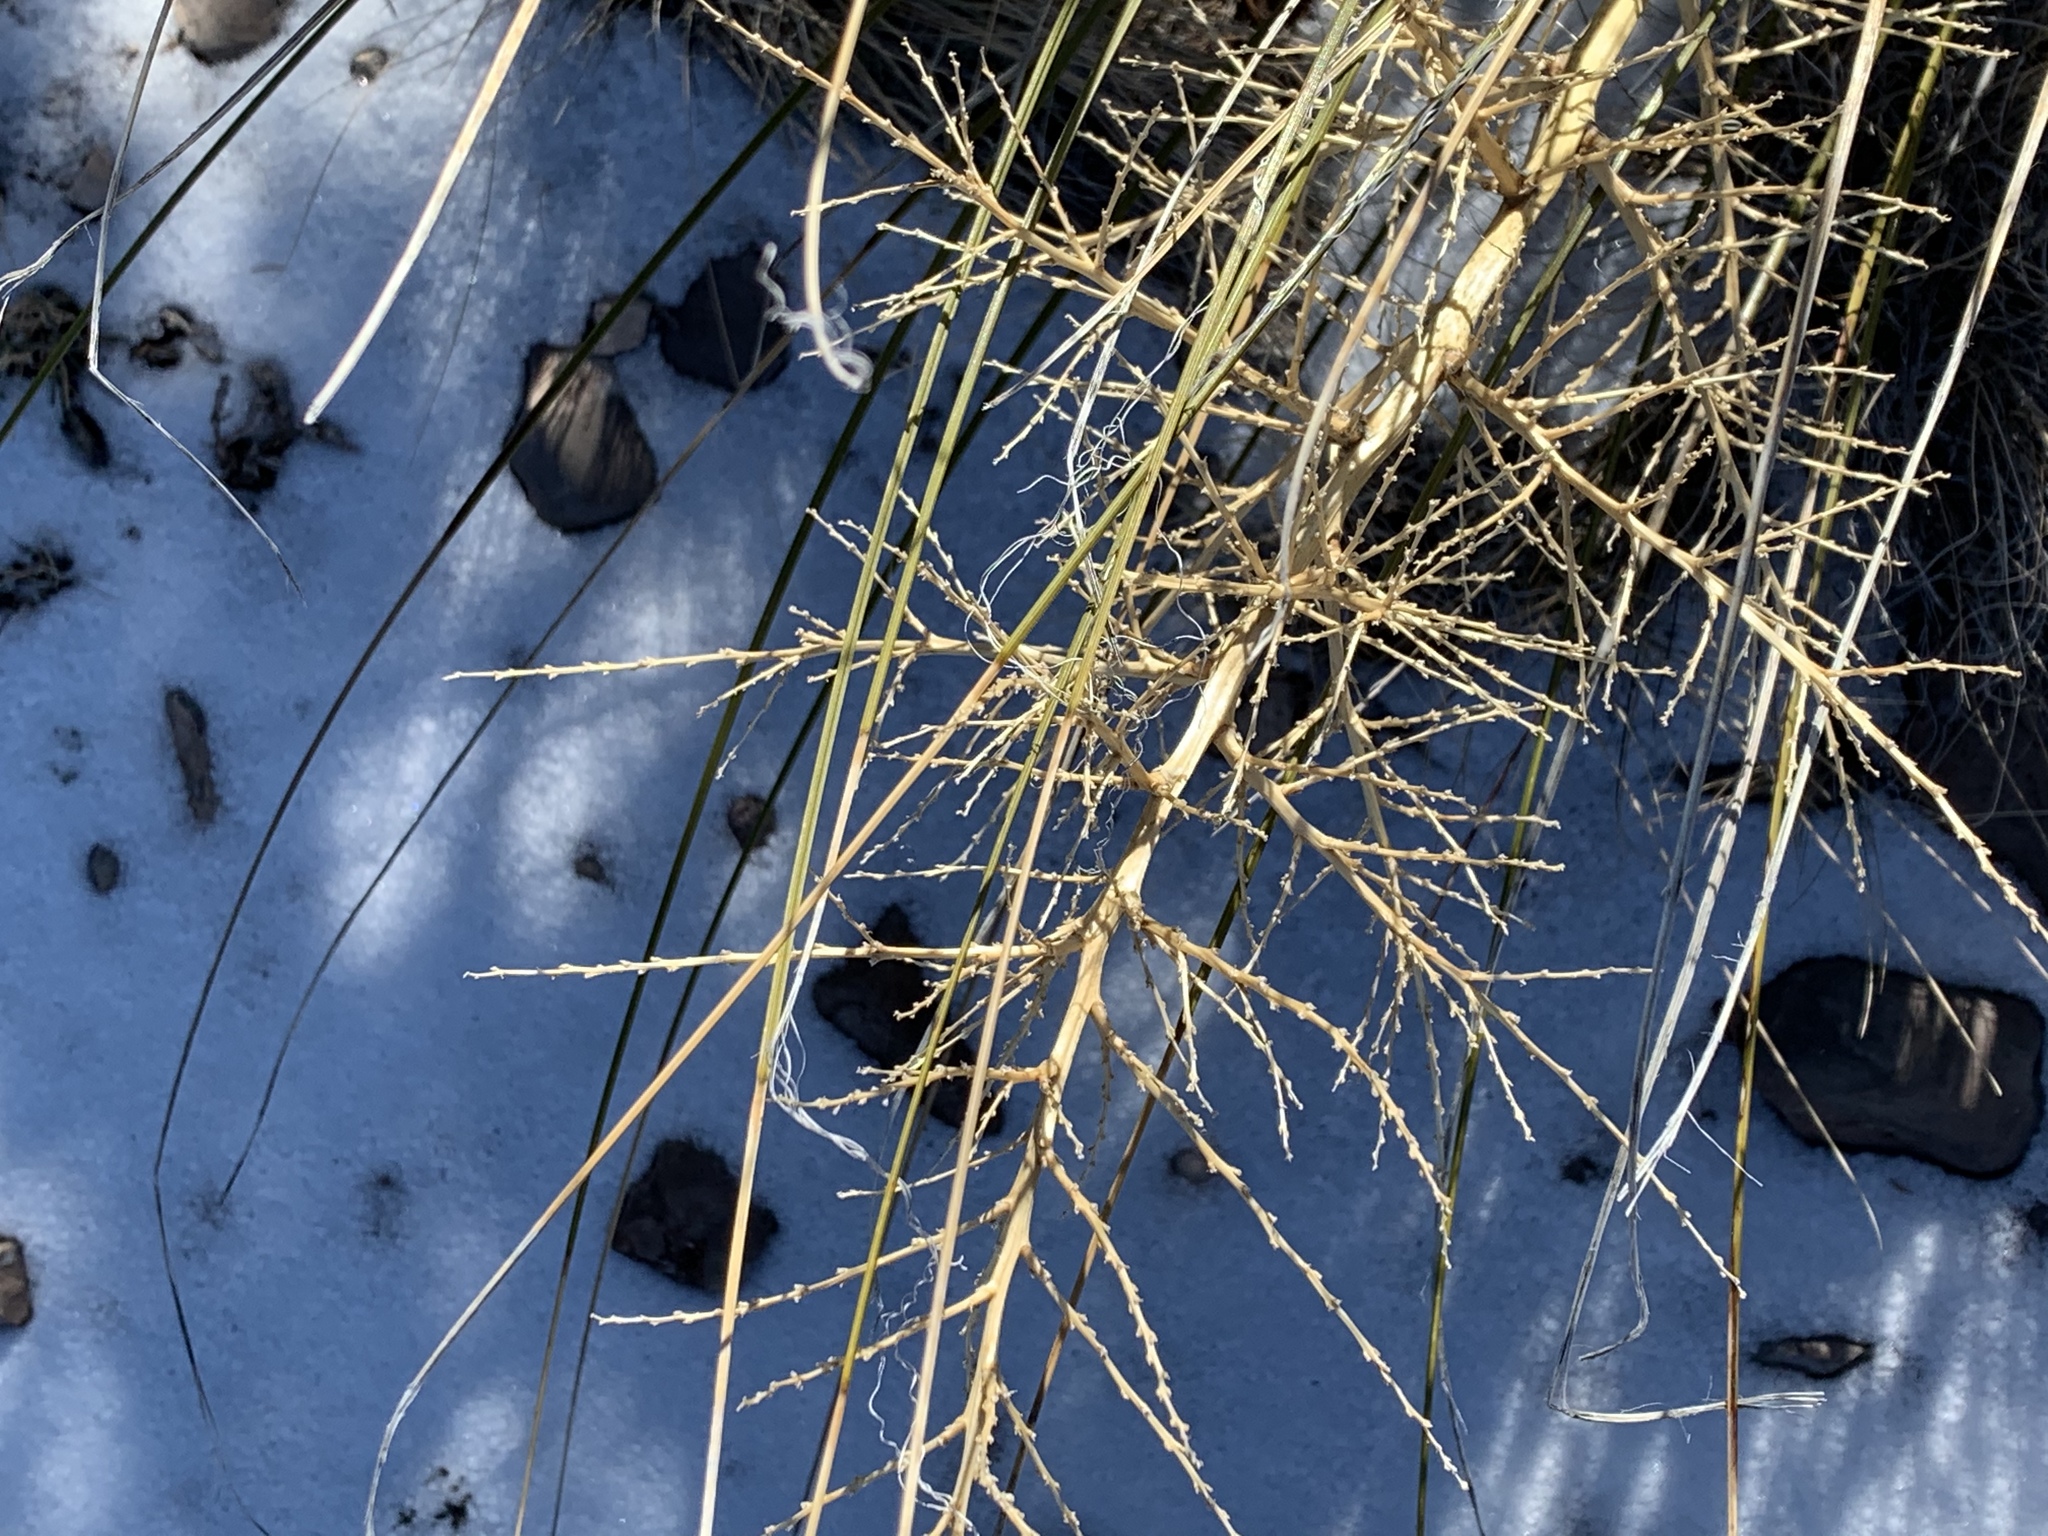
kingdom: Plantae
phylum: Tracheophyta
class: Liliopsida
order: Asparagales
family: Asparagaceae
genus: Nolina
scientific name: Nolina microcarpa
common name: Bear-grass
